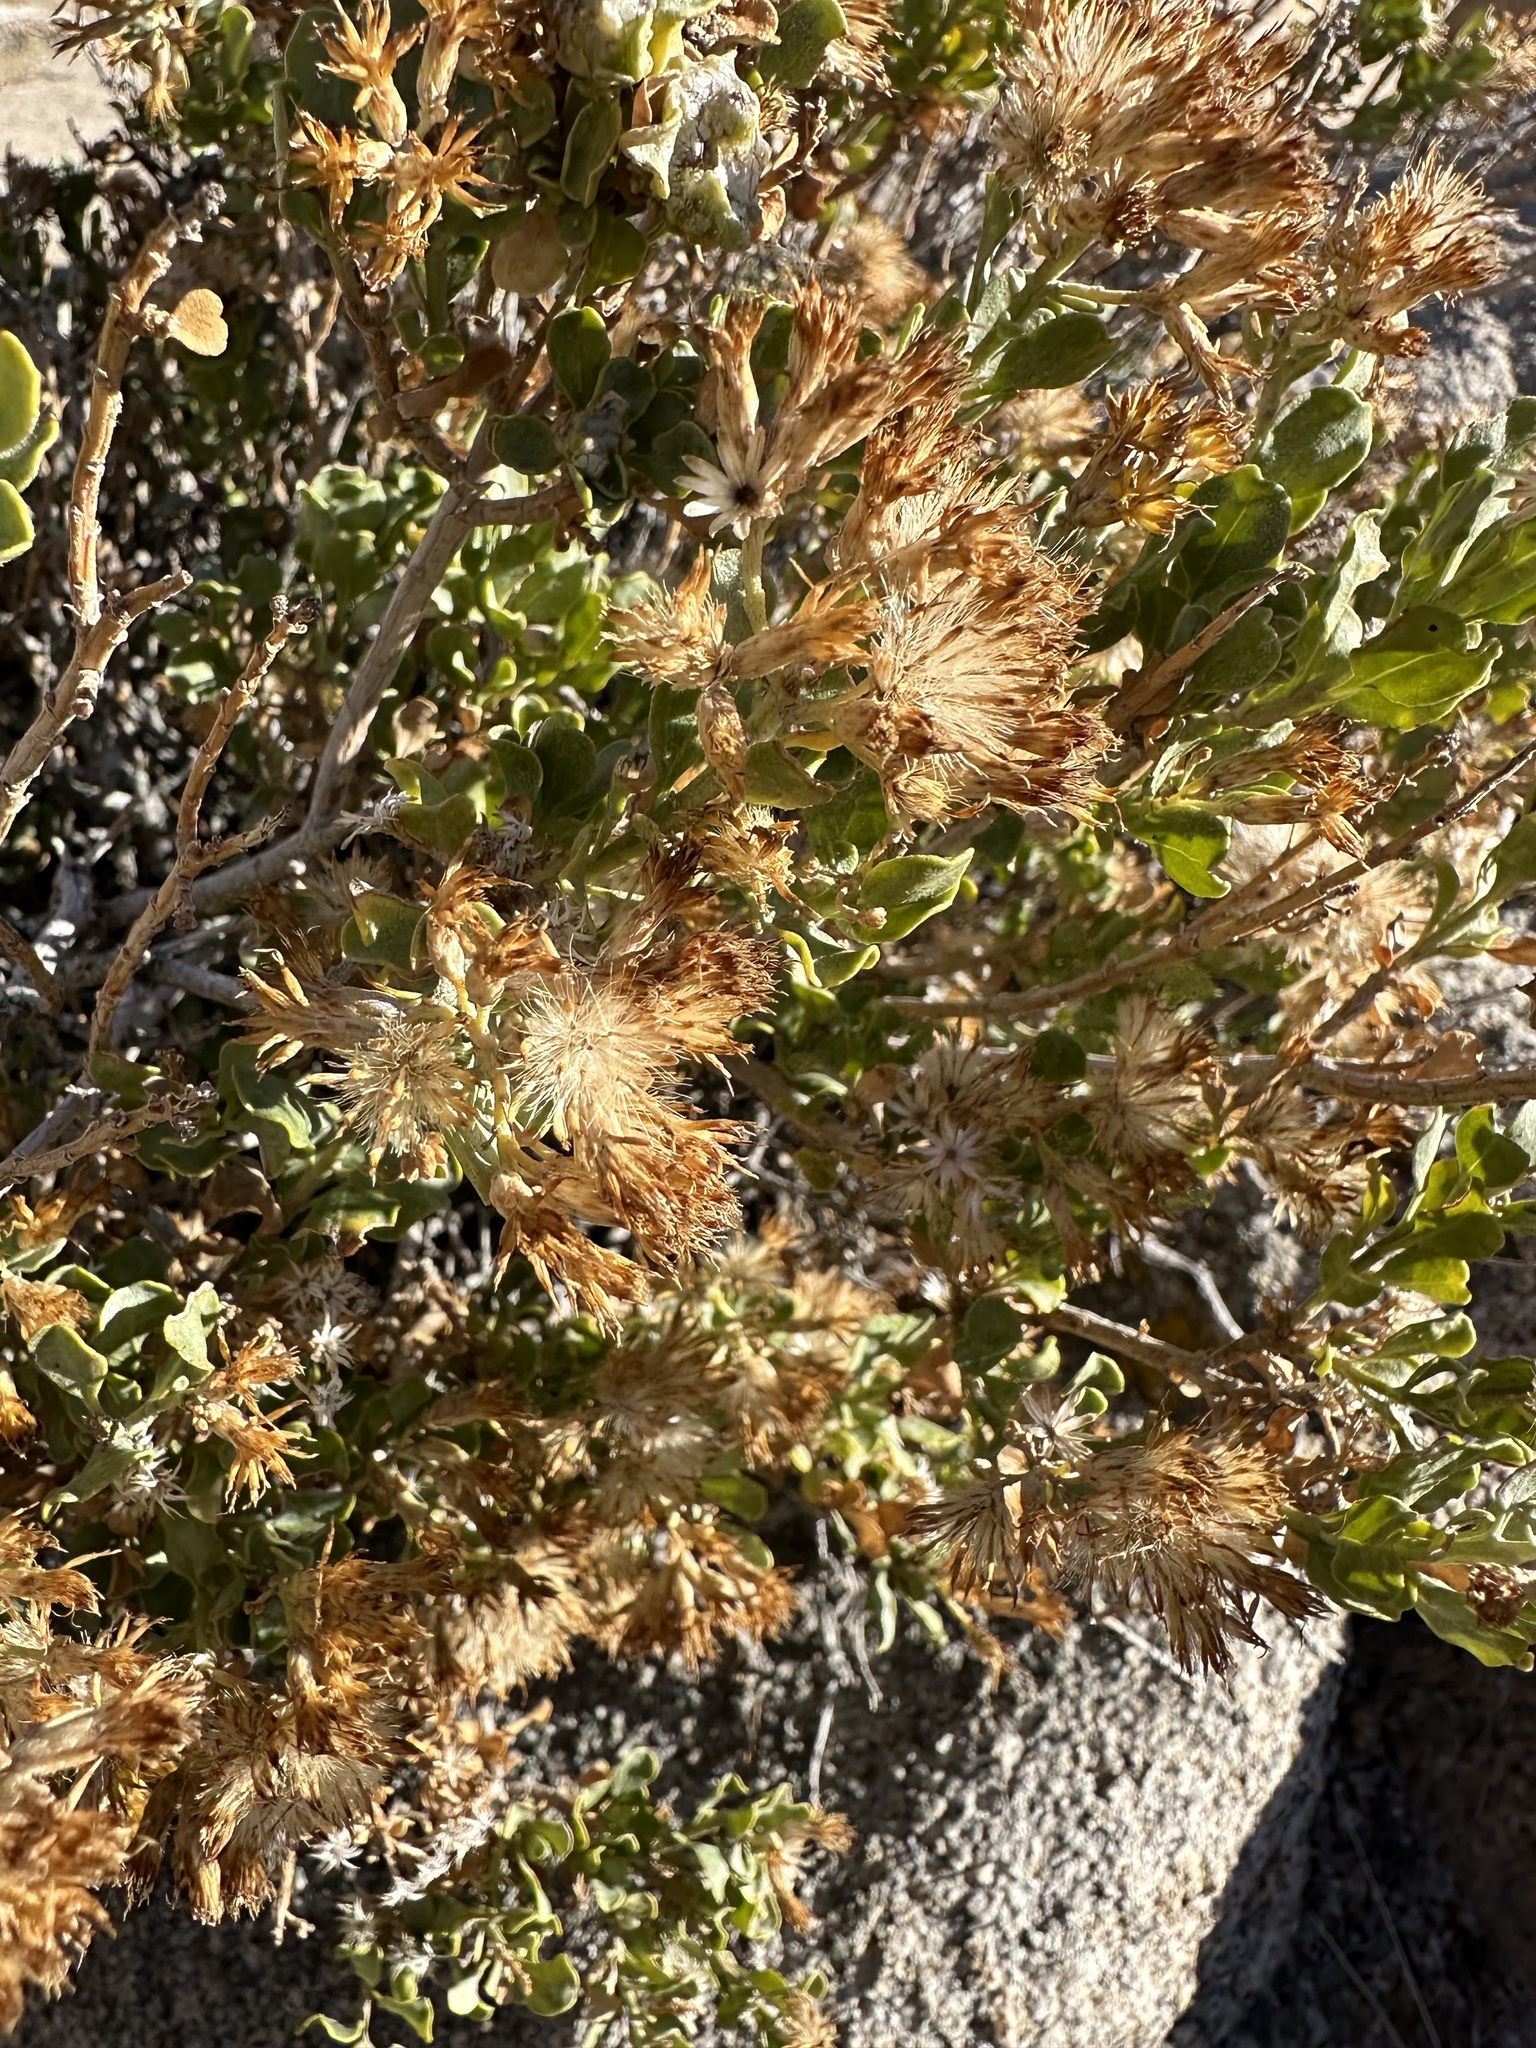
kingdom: Plantae
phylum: Tracheophyta
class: Magnoliopsida
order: Asterales
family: Asteraceae
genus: Ericameria
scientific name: Ericameria cuneata
